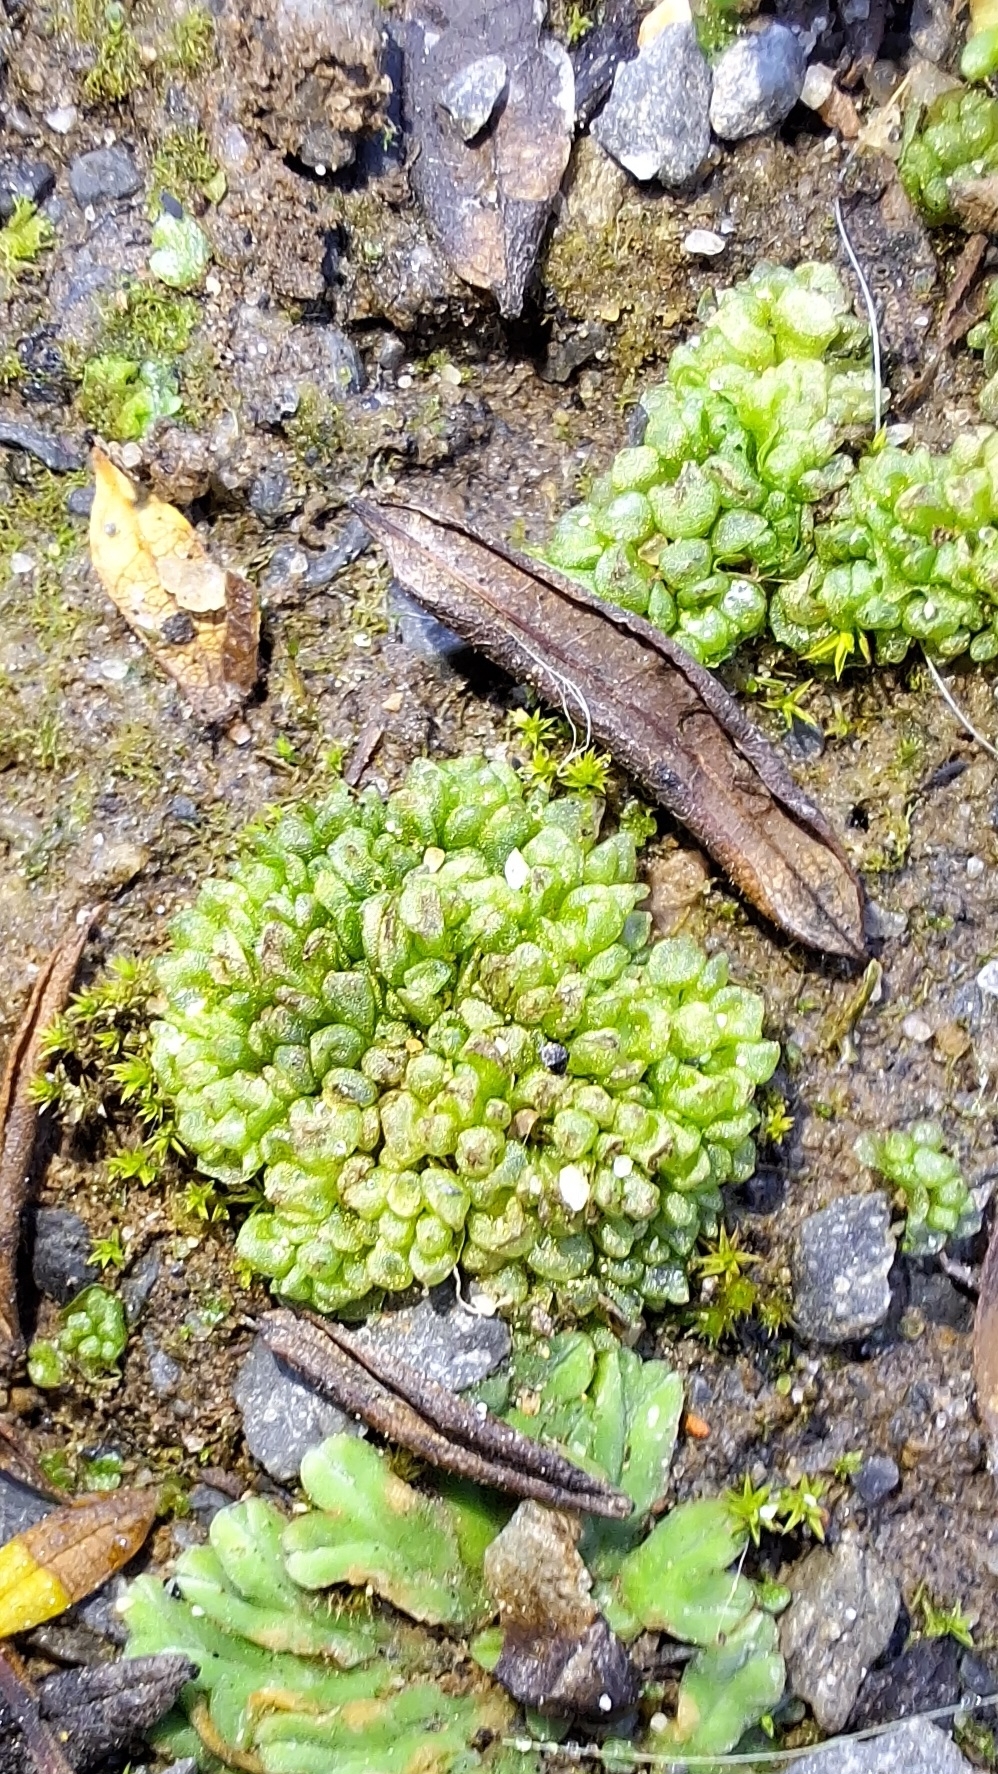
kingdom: Plantae
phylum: Marchantiophyta
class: Marchantiopsida
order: Sphaerocarpales
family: Sphaerocarpaceae
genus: Sphaerocarpos
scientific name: Sphaerocarpos texanus
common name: Texas balloonwort
